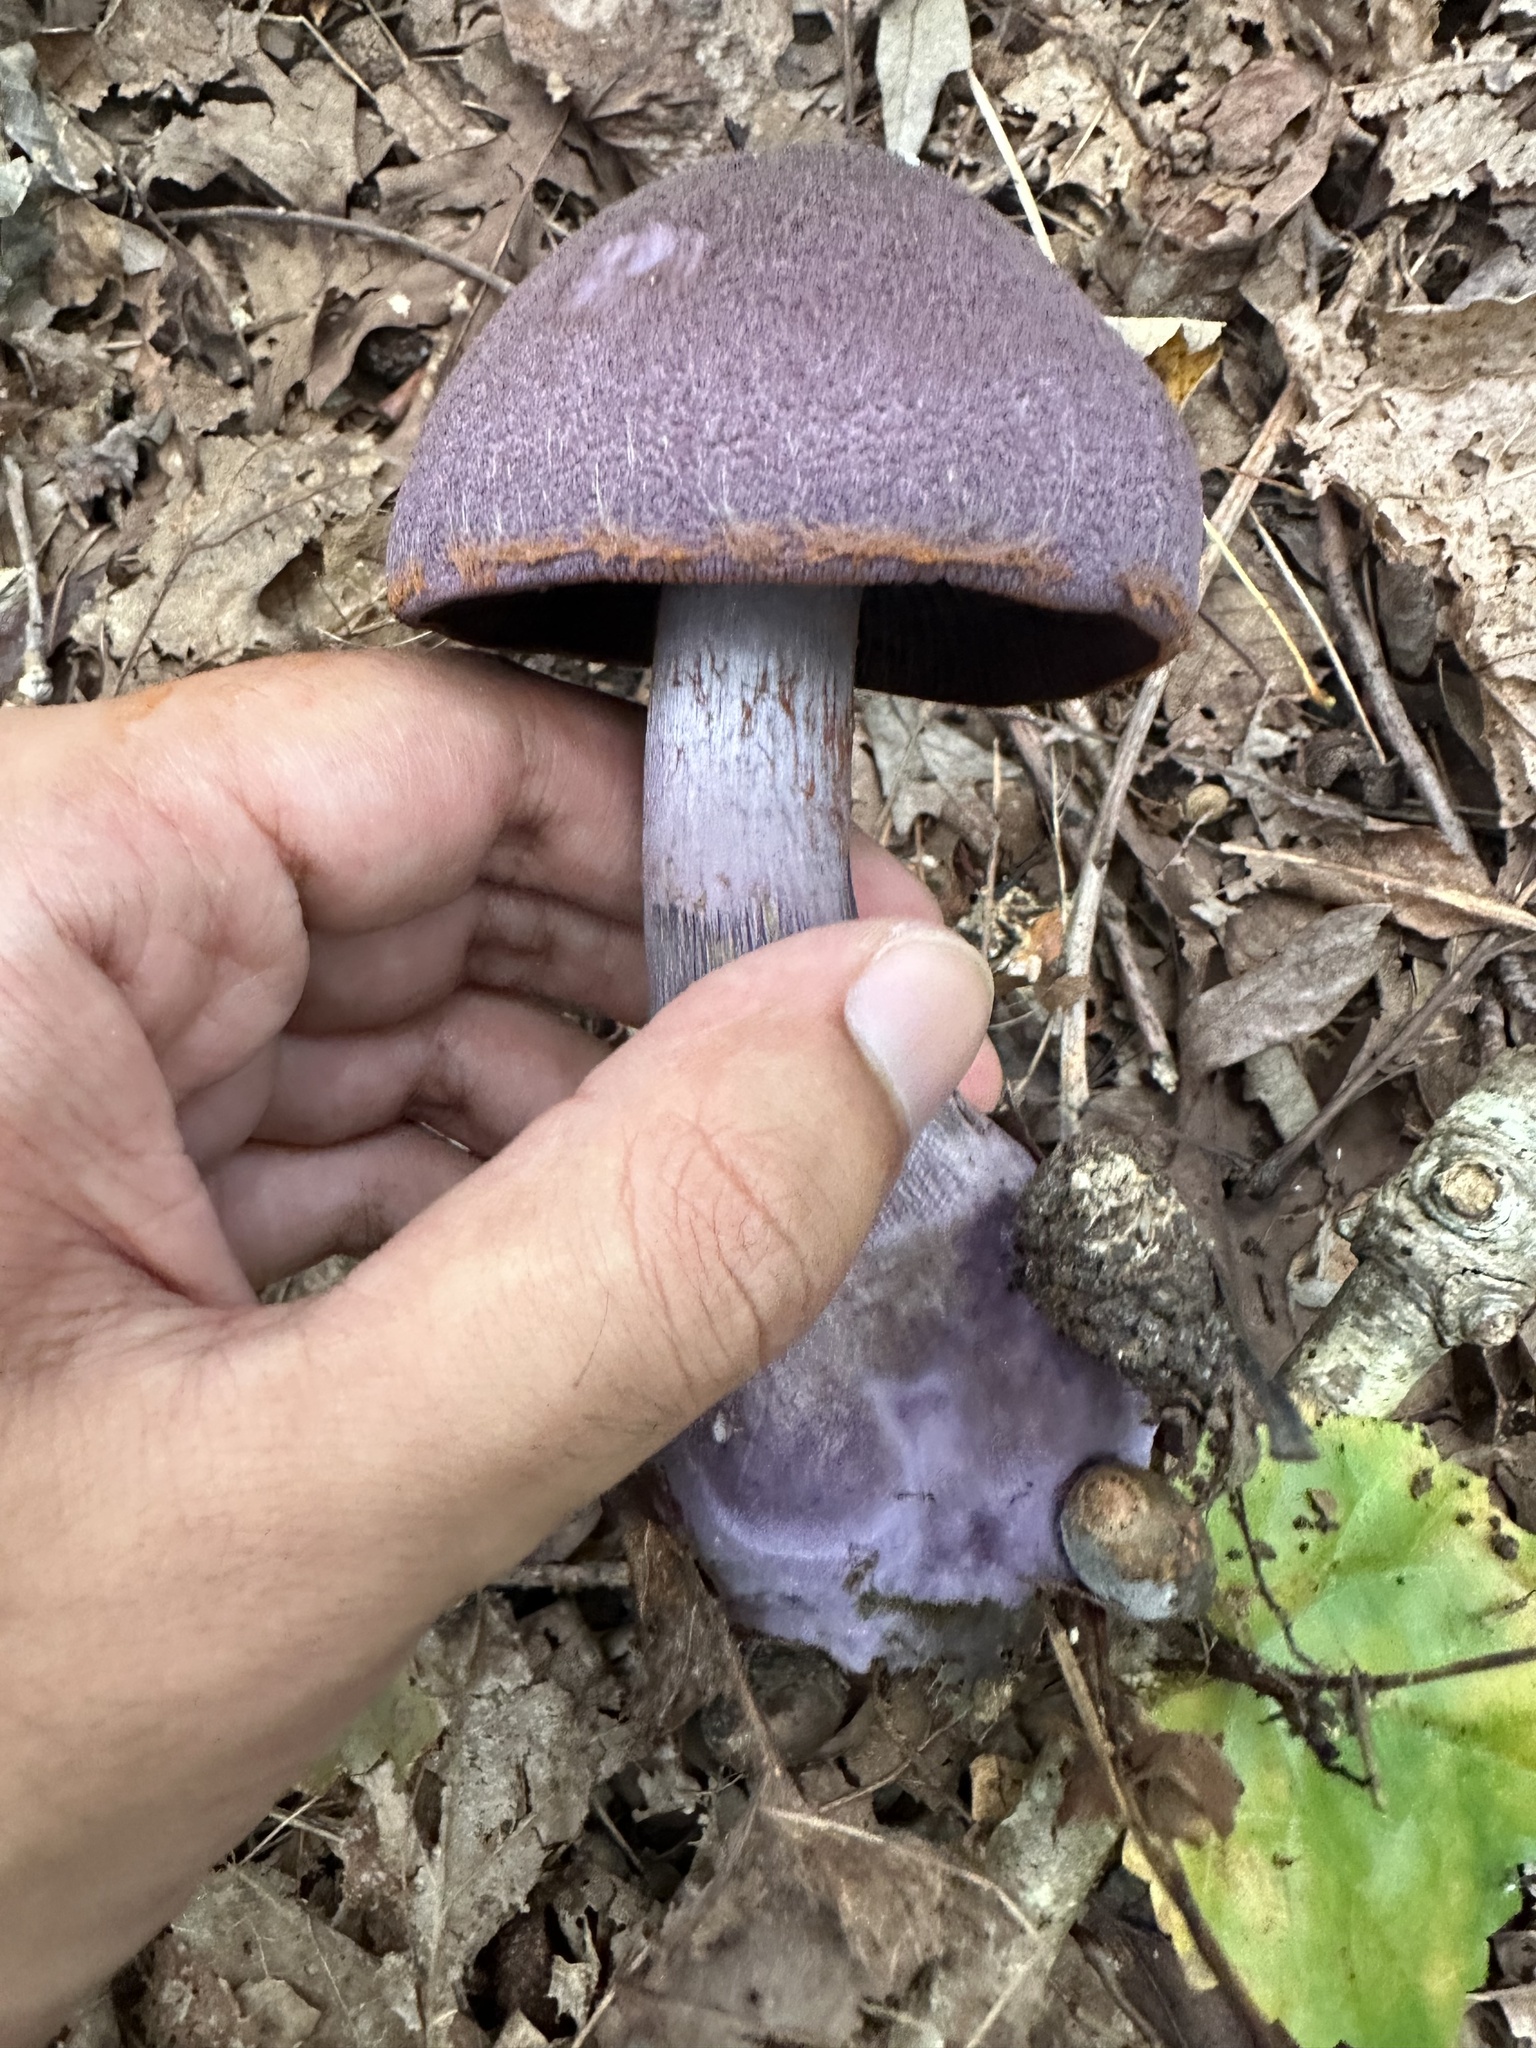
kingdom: Fungi
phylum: Basidiomycota
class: Agaricomycetes
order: Agaricales
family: Cortinariaceae
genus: Cortinarius
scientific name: Cortinarius violaceus
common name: Violet webcap
